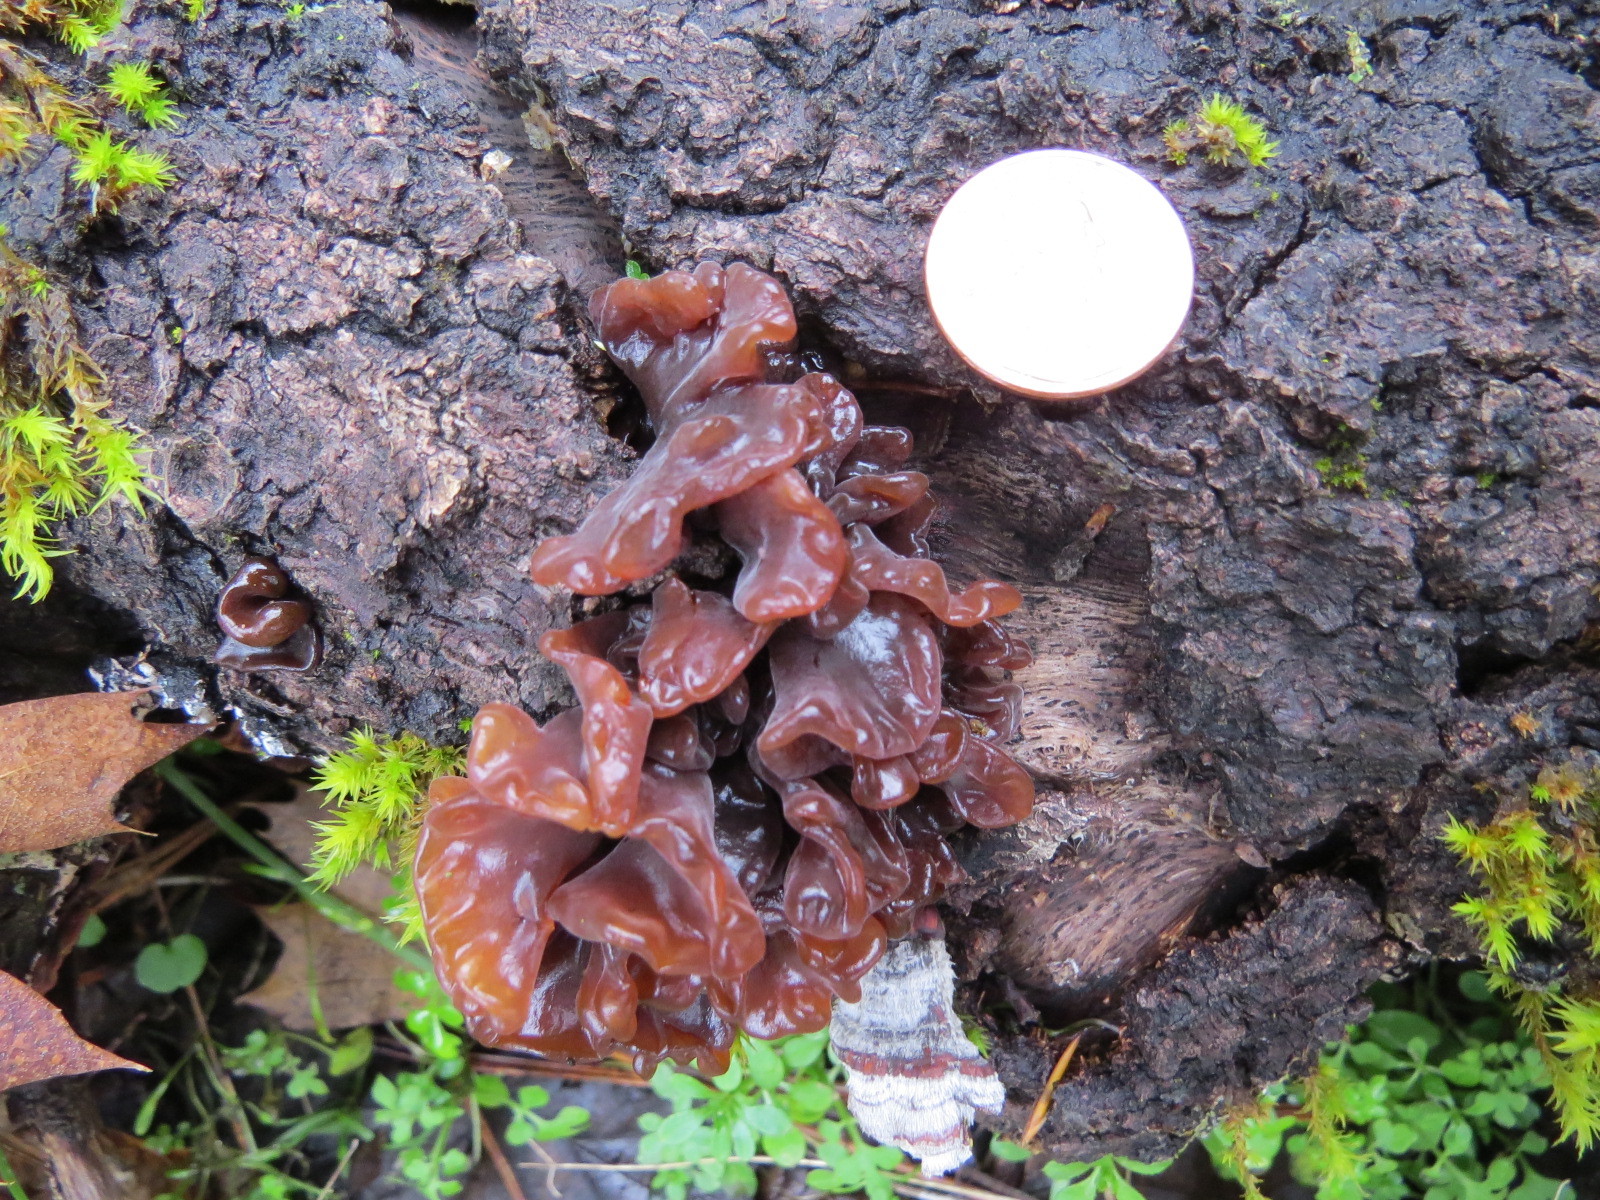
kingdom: Fungi
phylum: Basidiomycota
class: Tremellomycetes
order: Tremellales
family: Tremellaceae
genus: Phaeotremella
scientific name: Phaeotremella frondosa
